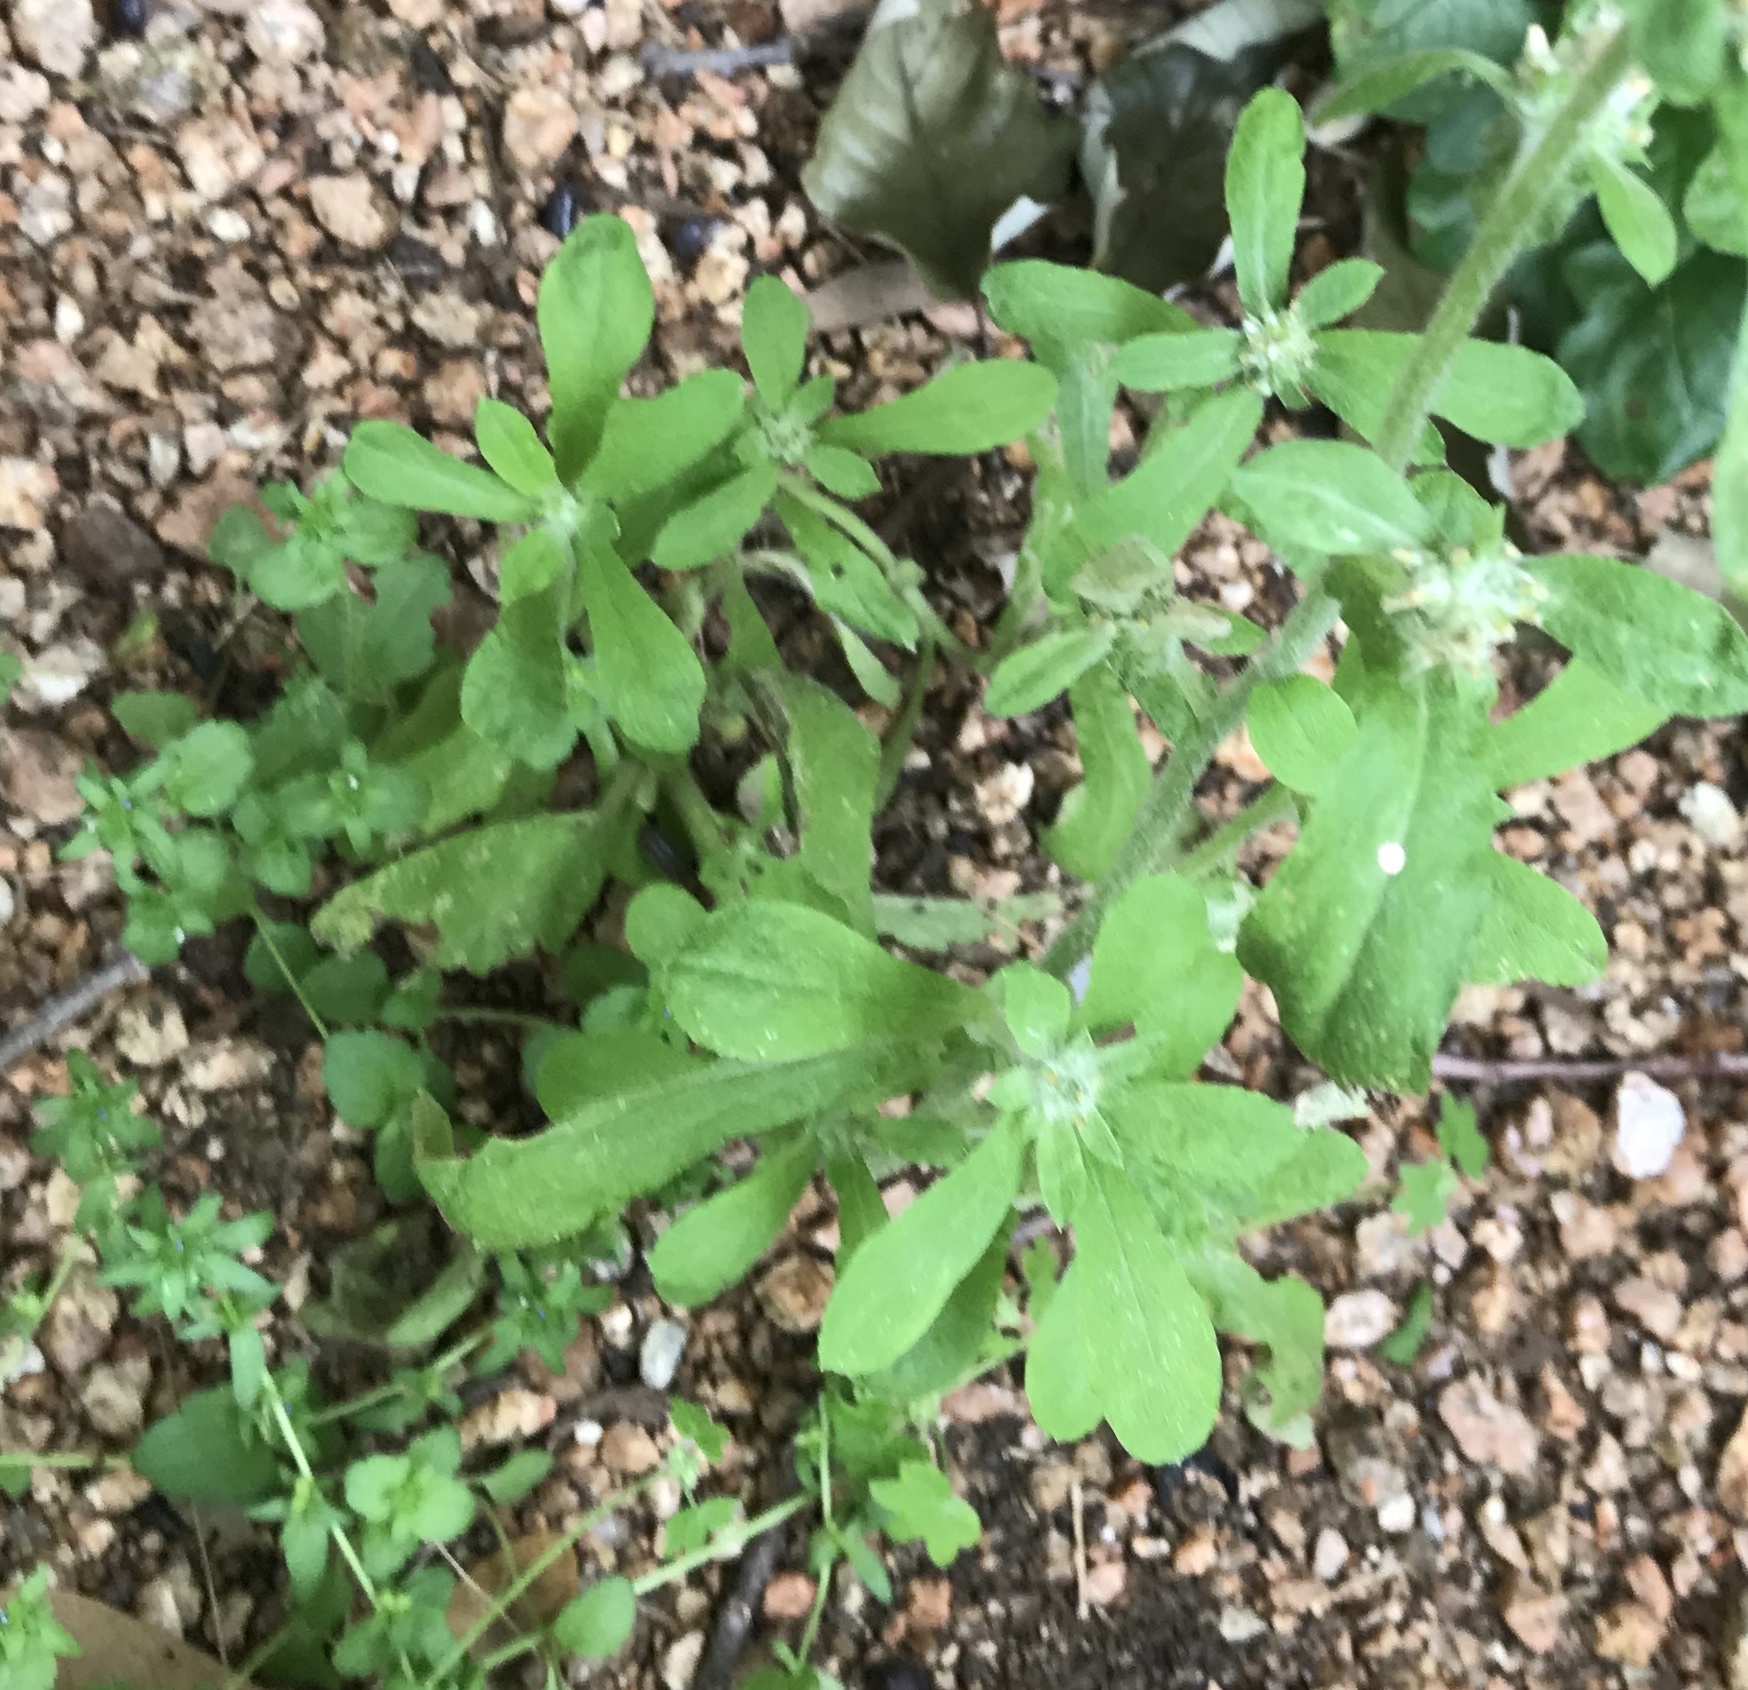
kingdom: Plantae
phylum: Tracheophyta
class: Magnoliopsida
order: Asterales
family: Asteraceae
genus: Gamochaeta
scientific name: Gamochaeta pensylvanica
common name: Pennsylvania everlasting
